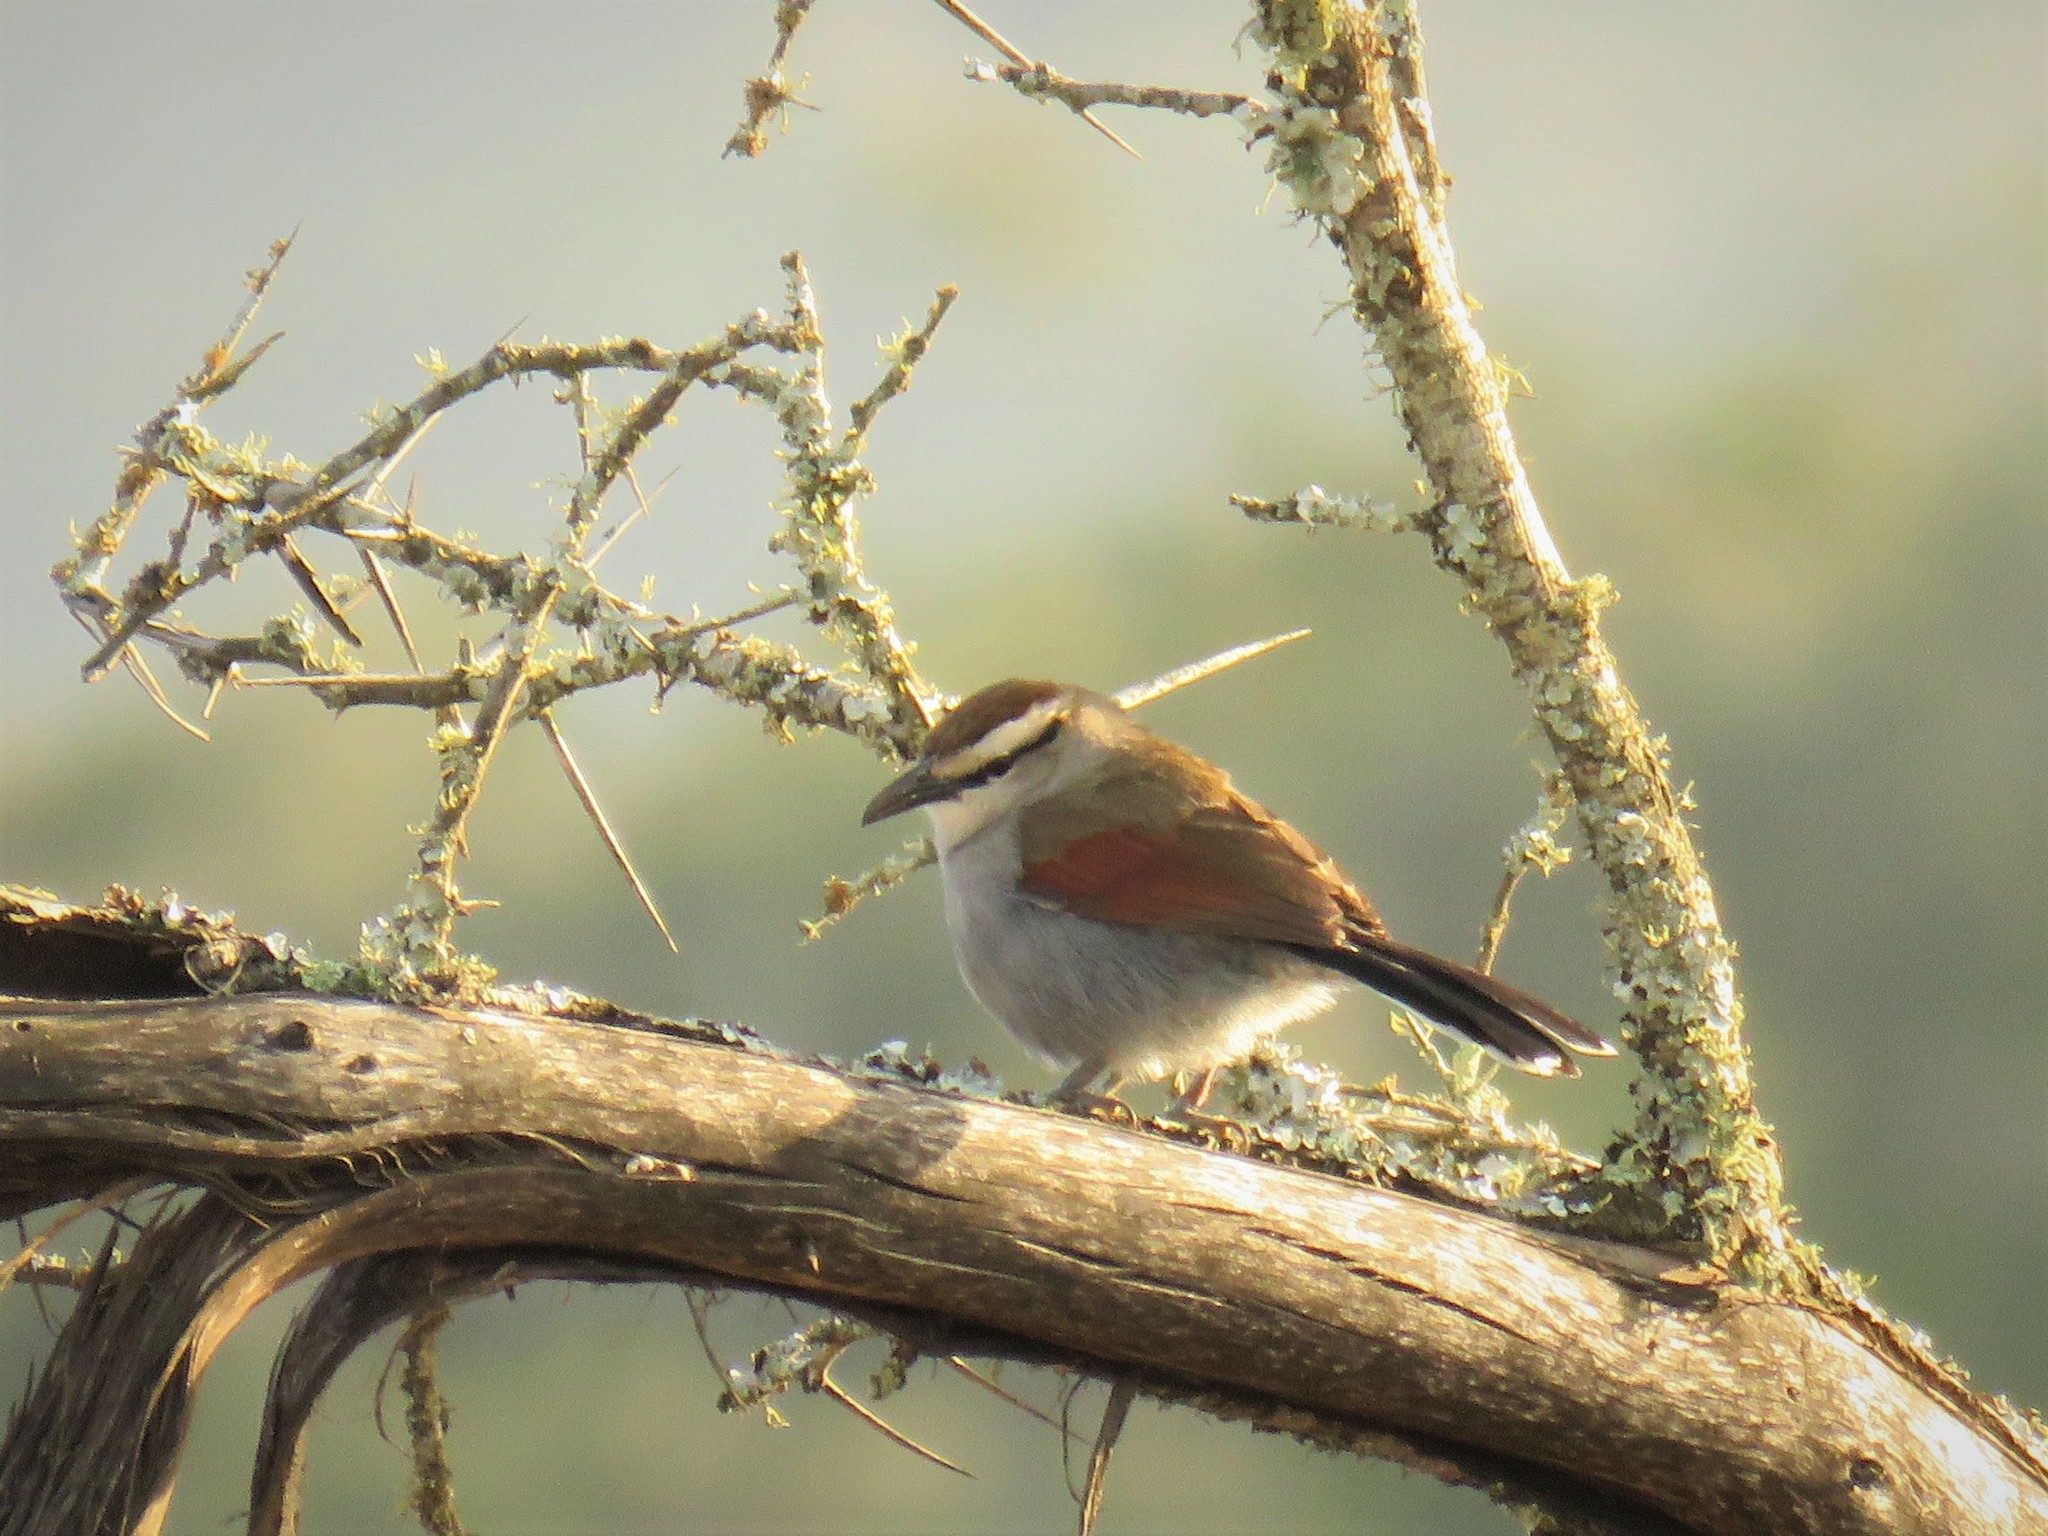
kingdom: Animalia
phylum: Chordata
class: Aves
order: Passeriformes
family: Malaconotidae
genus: Tchagra
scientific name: Tchagra tchagra
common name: Southern tchagra
